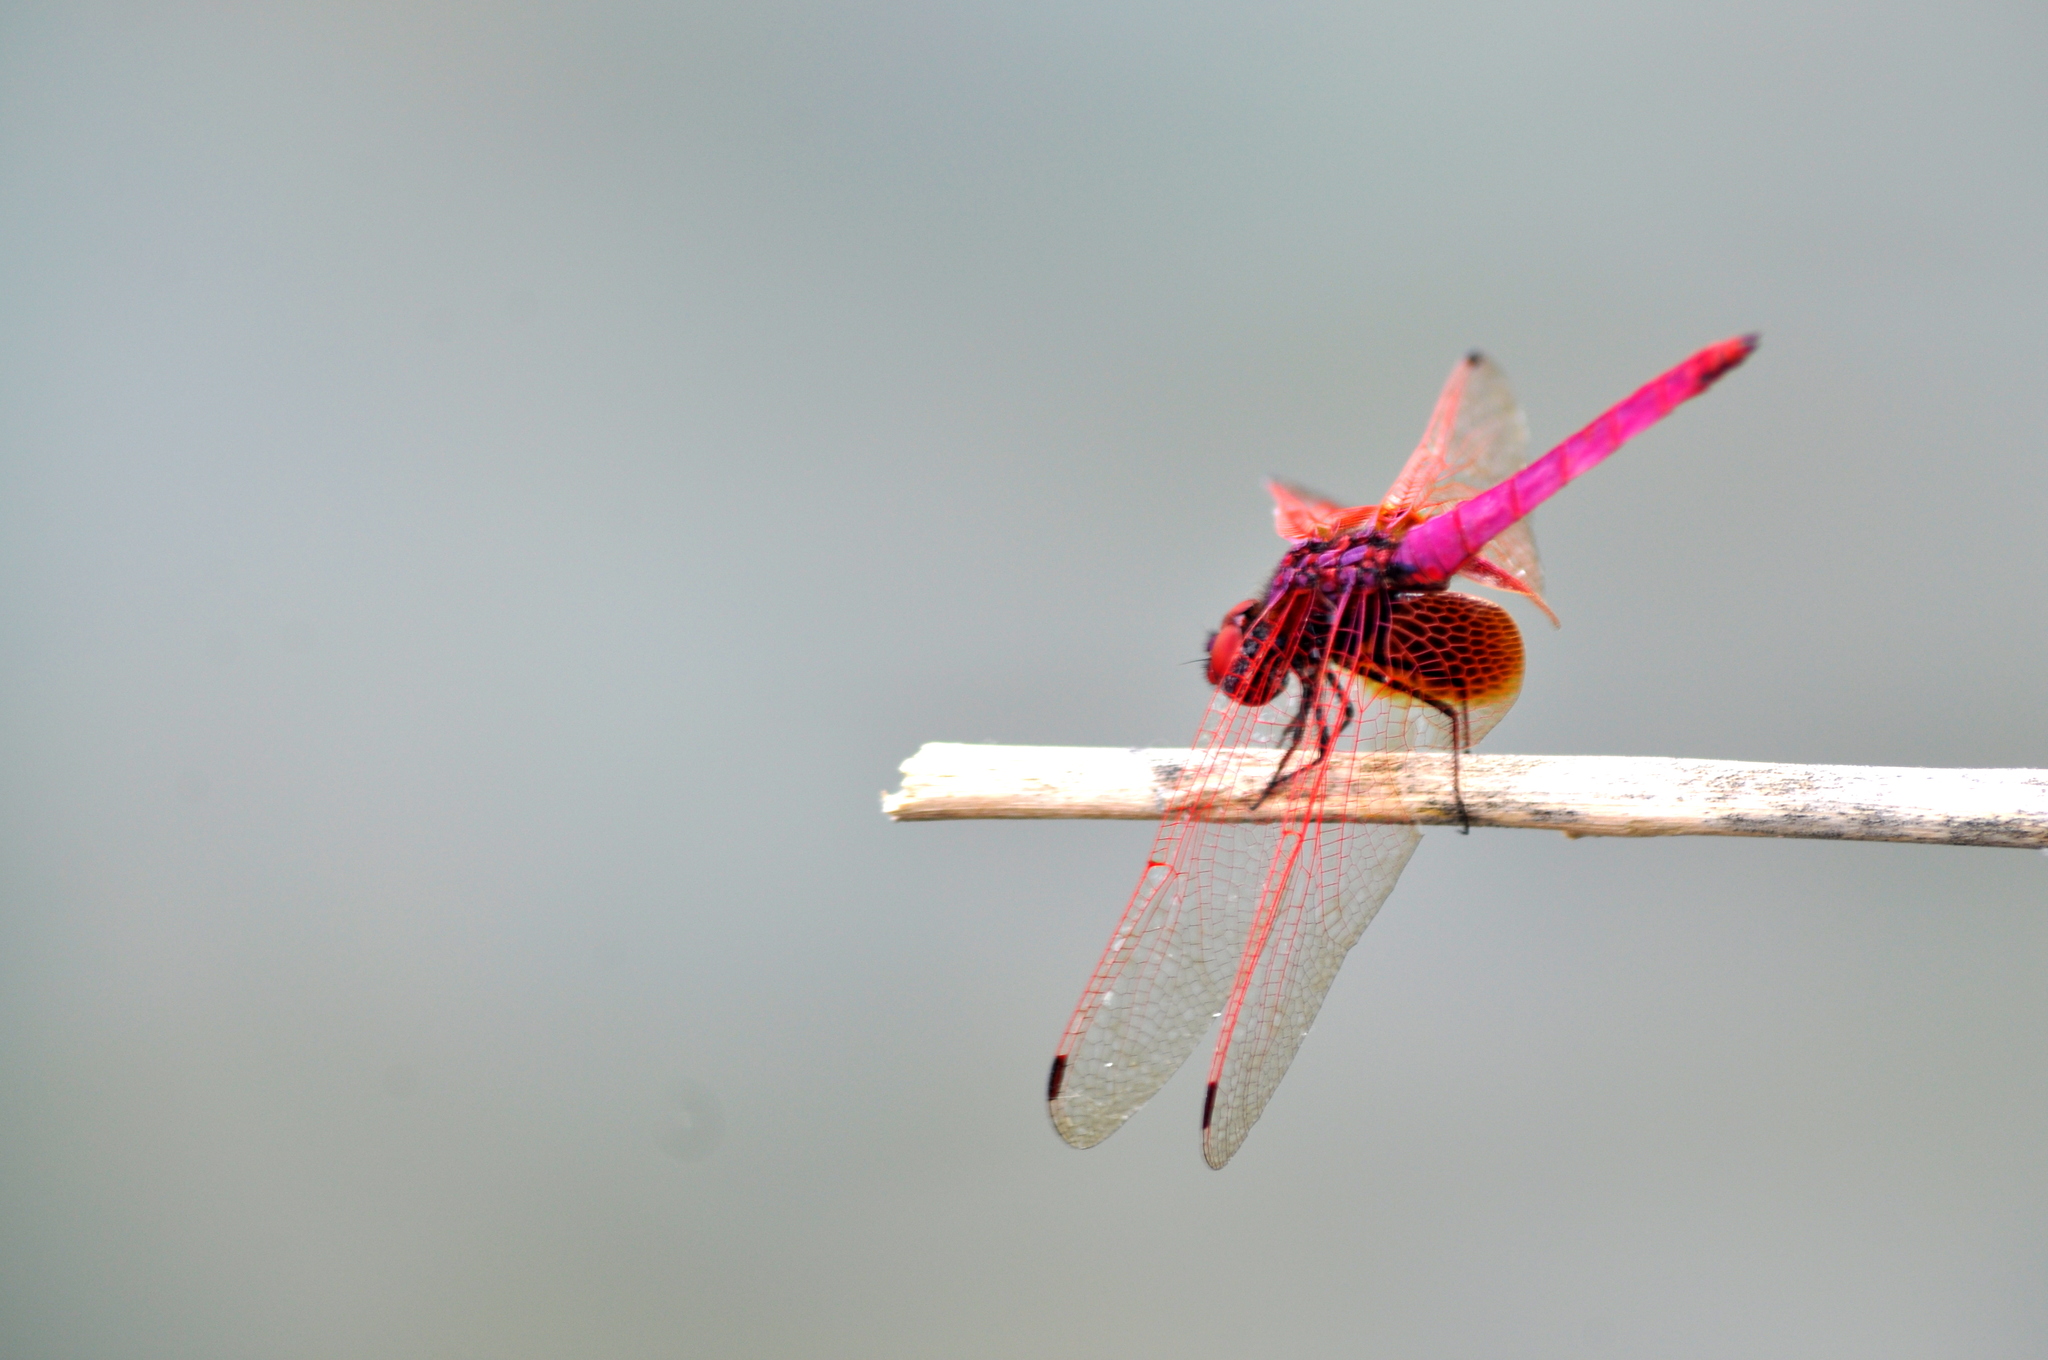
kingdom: Animalia
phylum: Arthropoda
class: Insecta
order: Odonata
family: Libellulidae
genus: Trithemis
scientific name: Trithemis aurora
